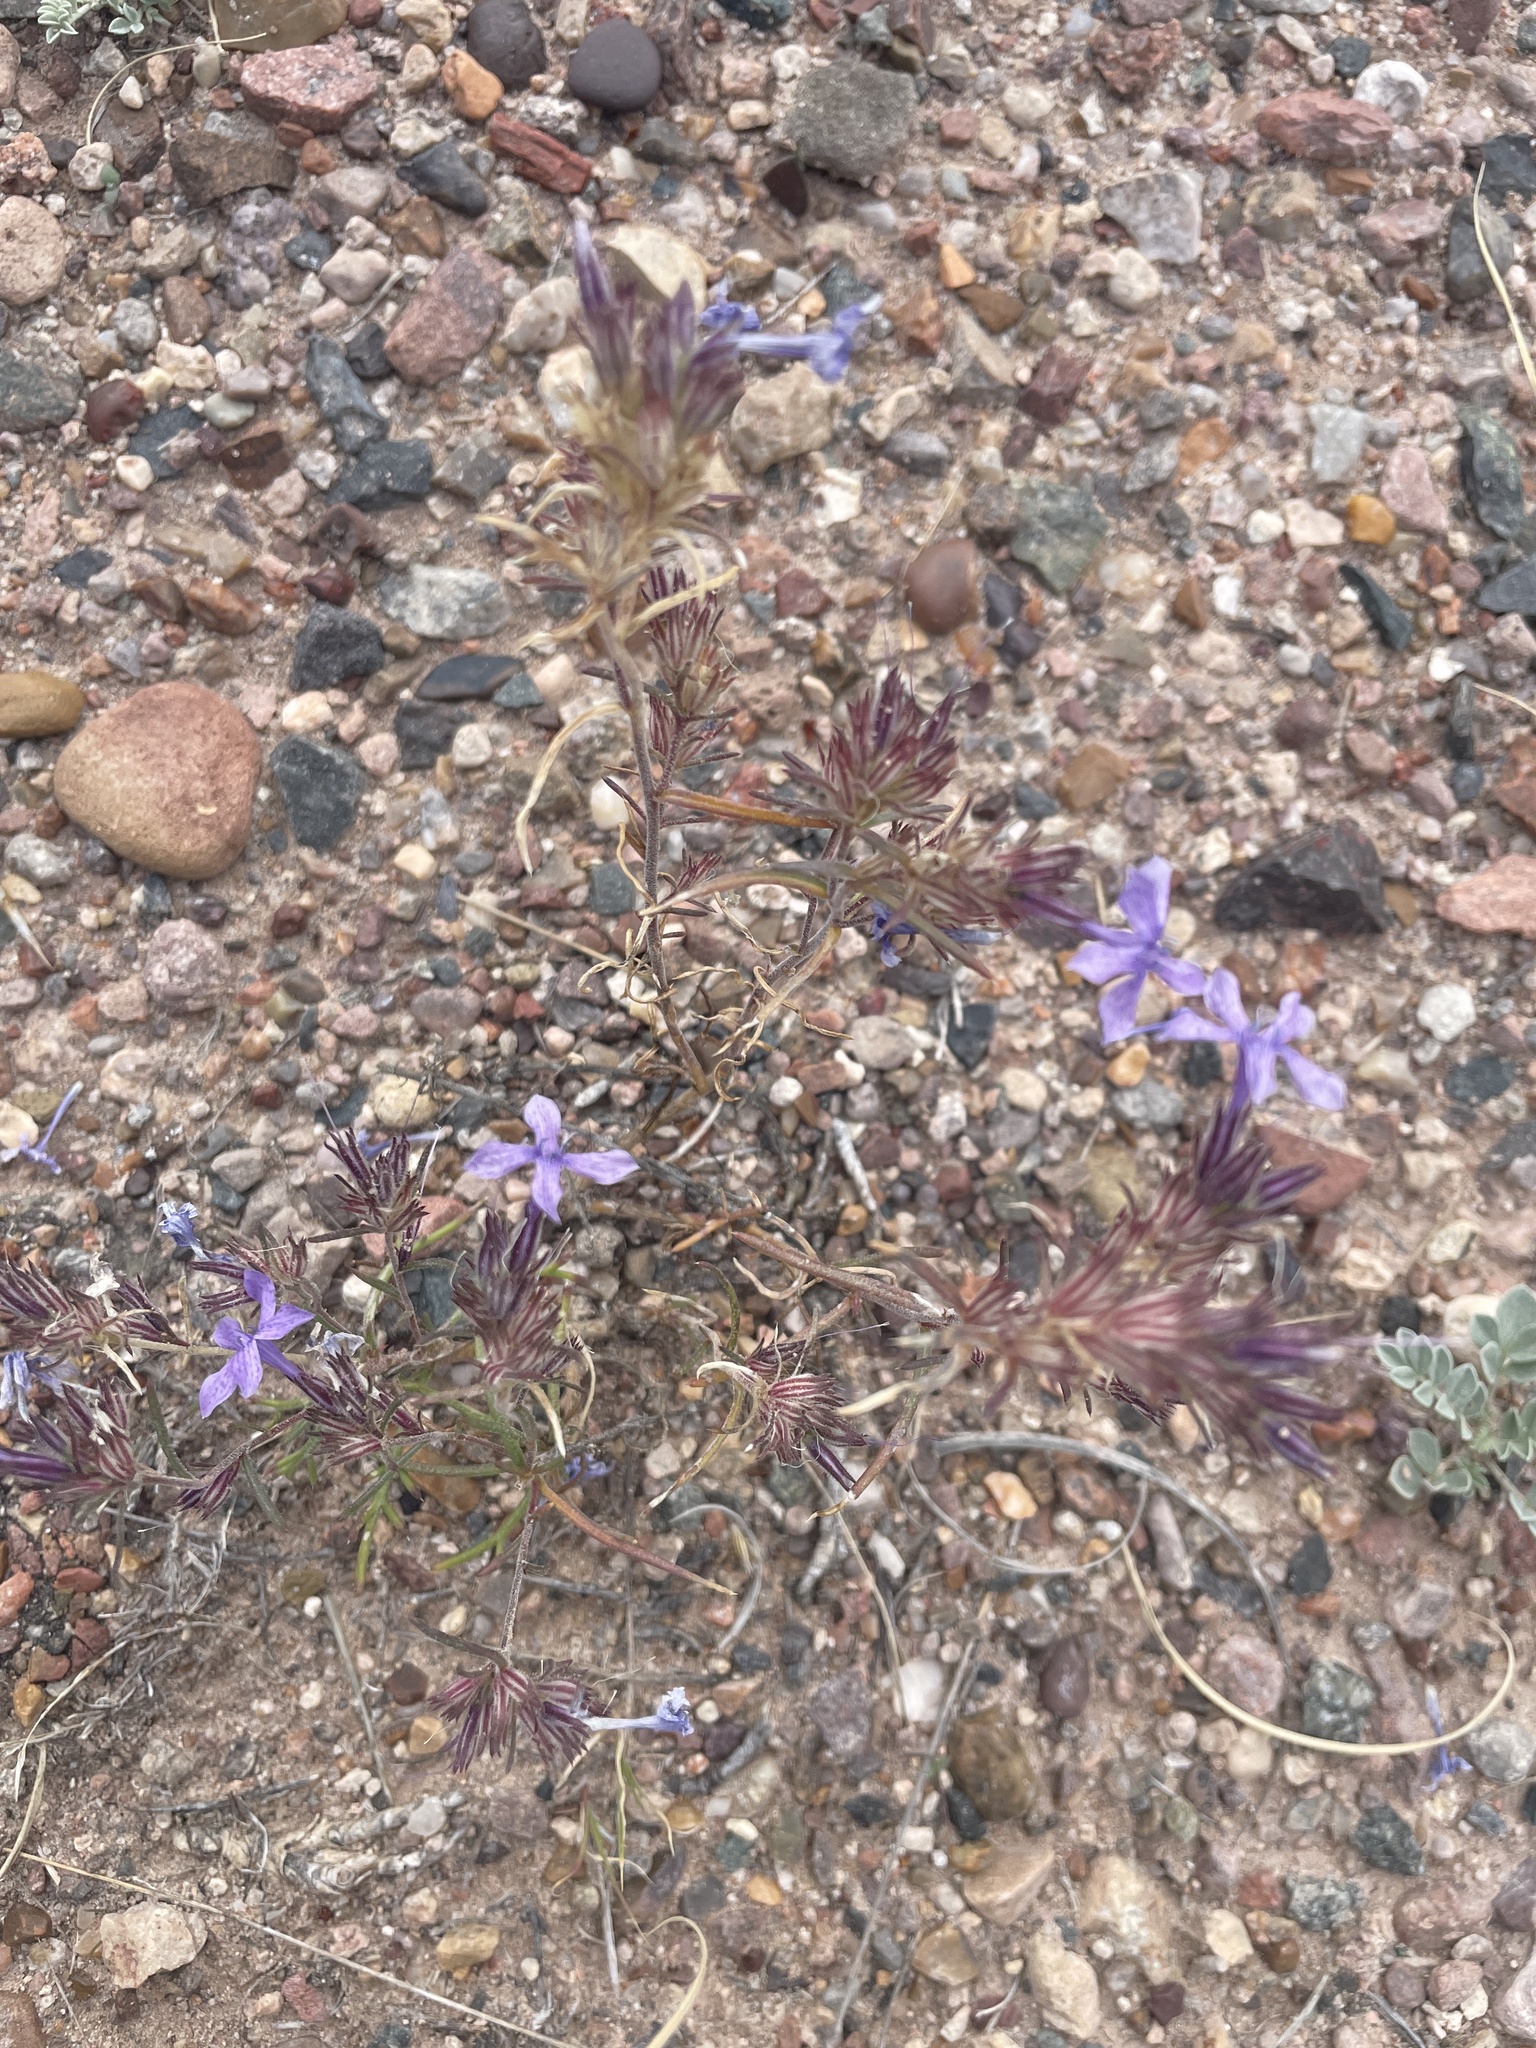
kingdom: Plantae
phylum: Tracheophyta
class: Magnoliopsida
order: Ericales
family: Polemoniaceae
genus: Ipomopsis
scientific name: Ipomopsis multiflora
